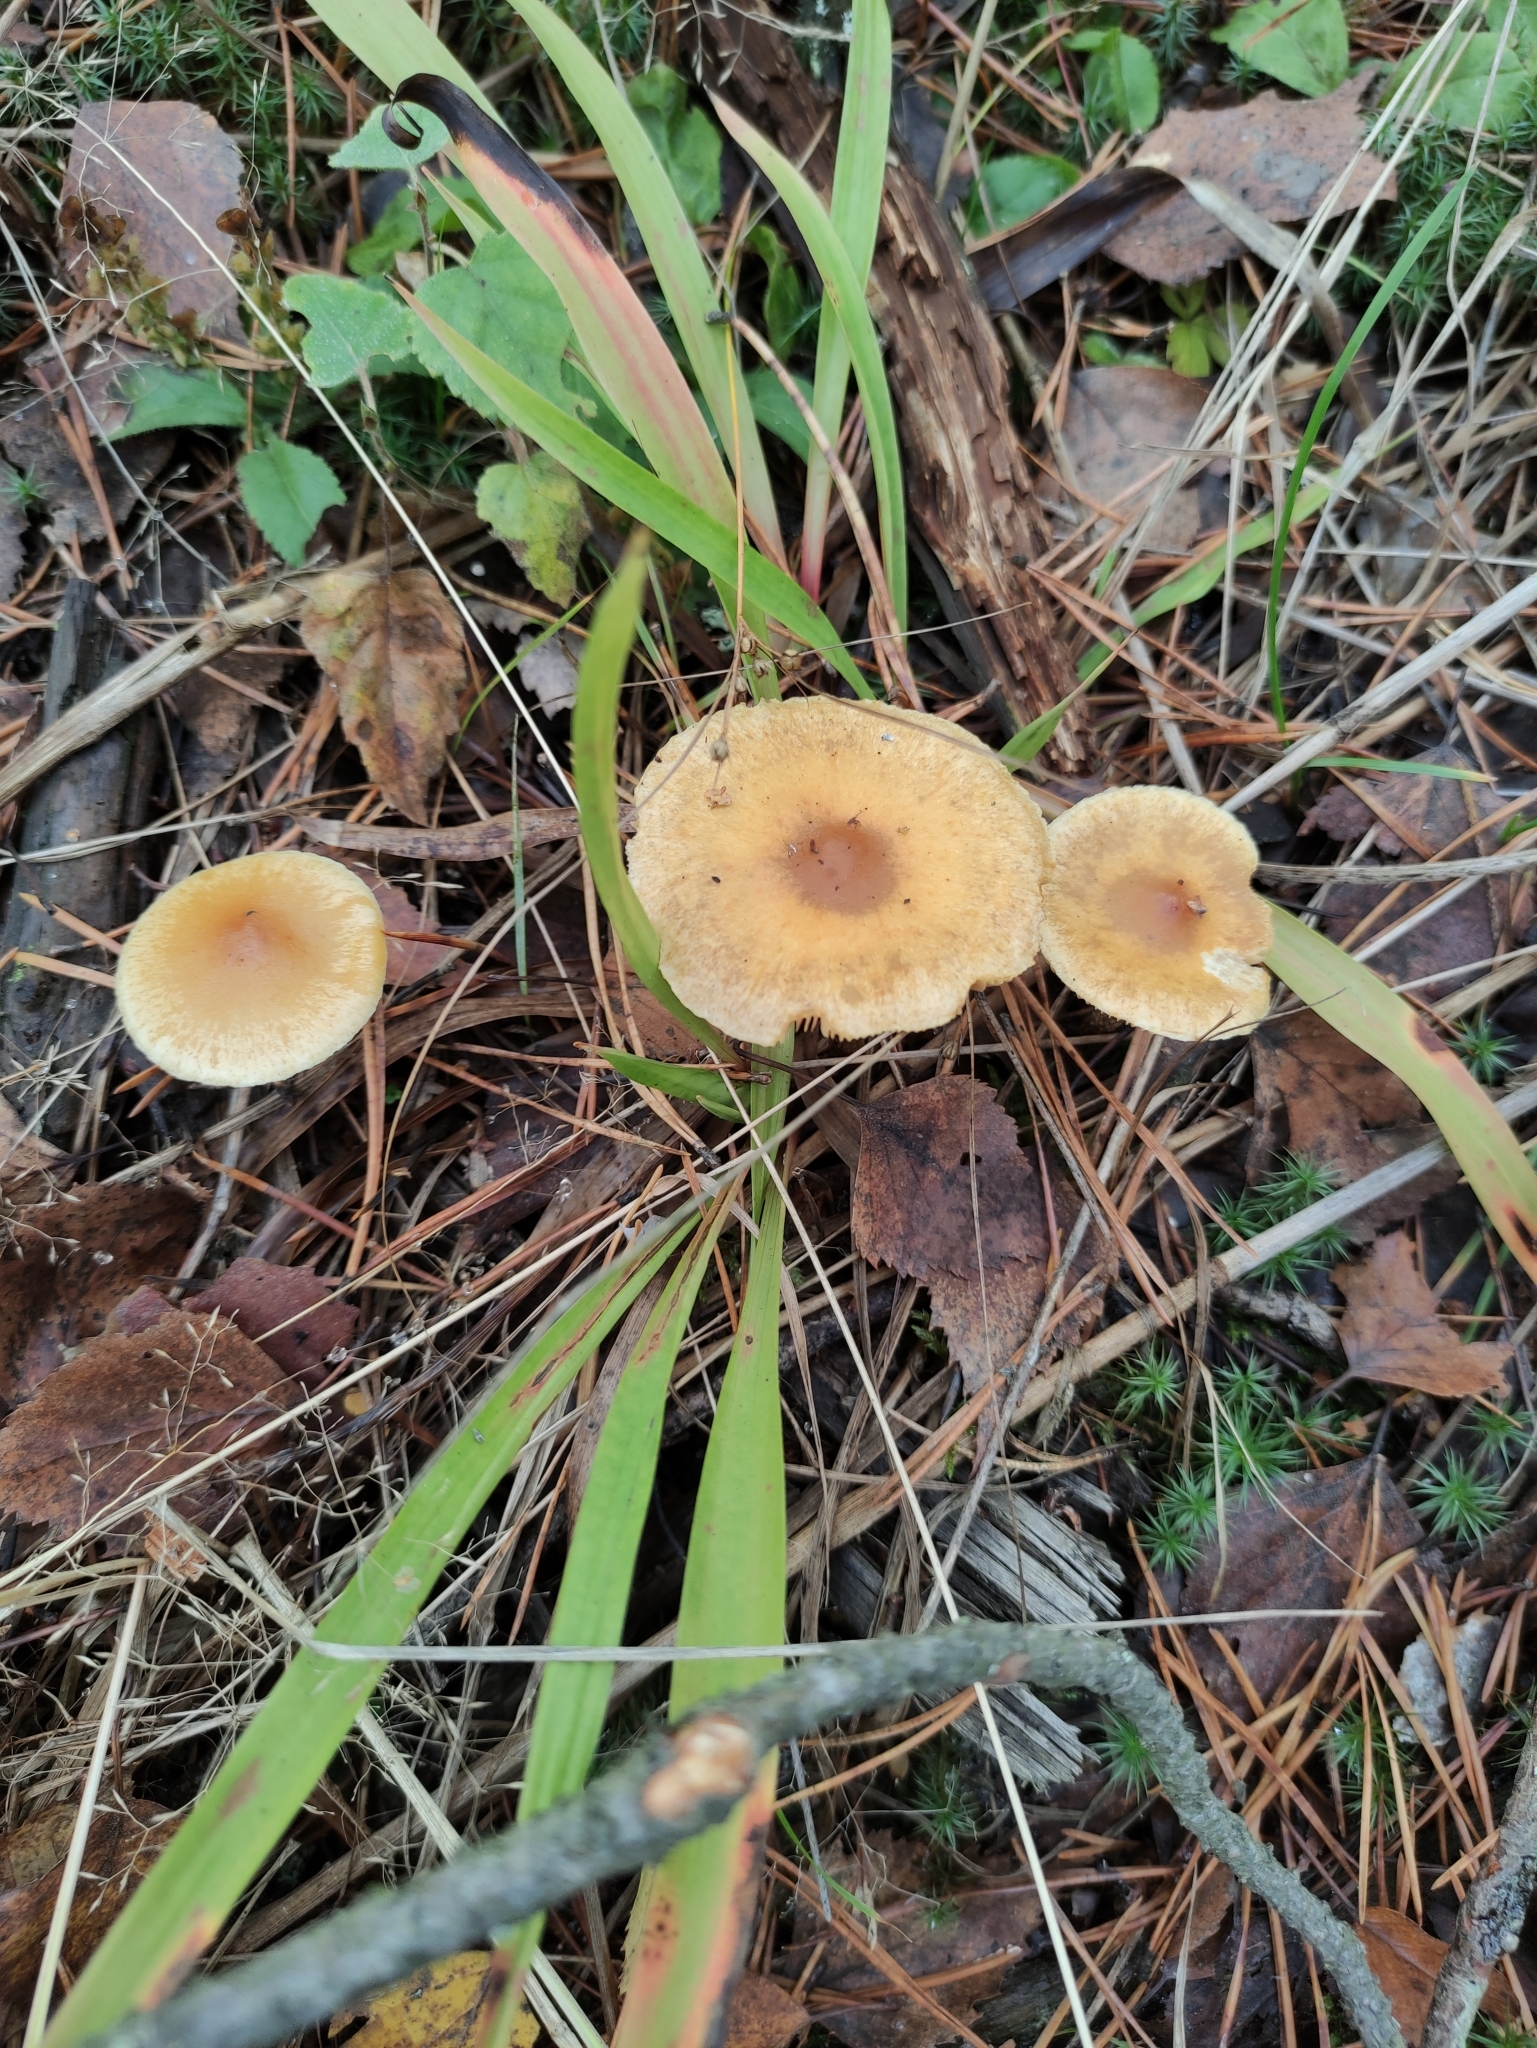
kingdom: Fungi
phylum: Basidiomycota
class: Agaricomycetes
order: Agaricales
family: Strophariaceae
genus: Pholiota
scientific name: Pholiota spumosa
